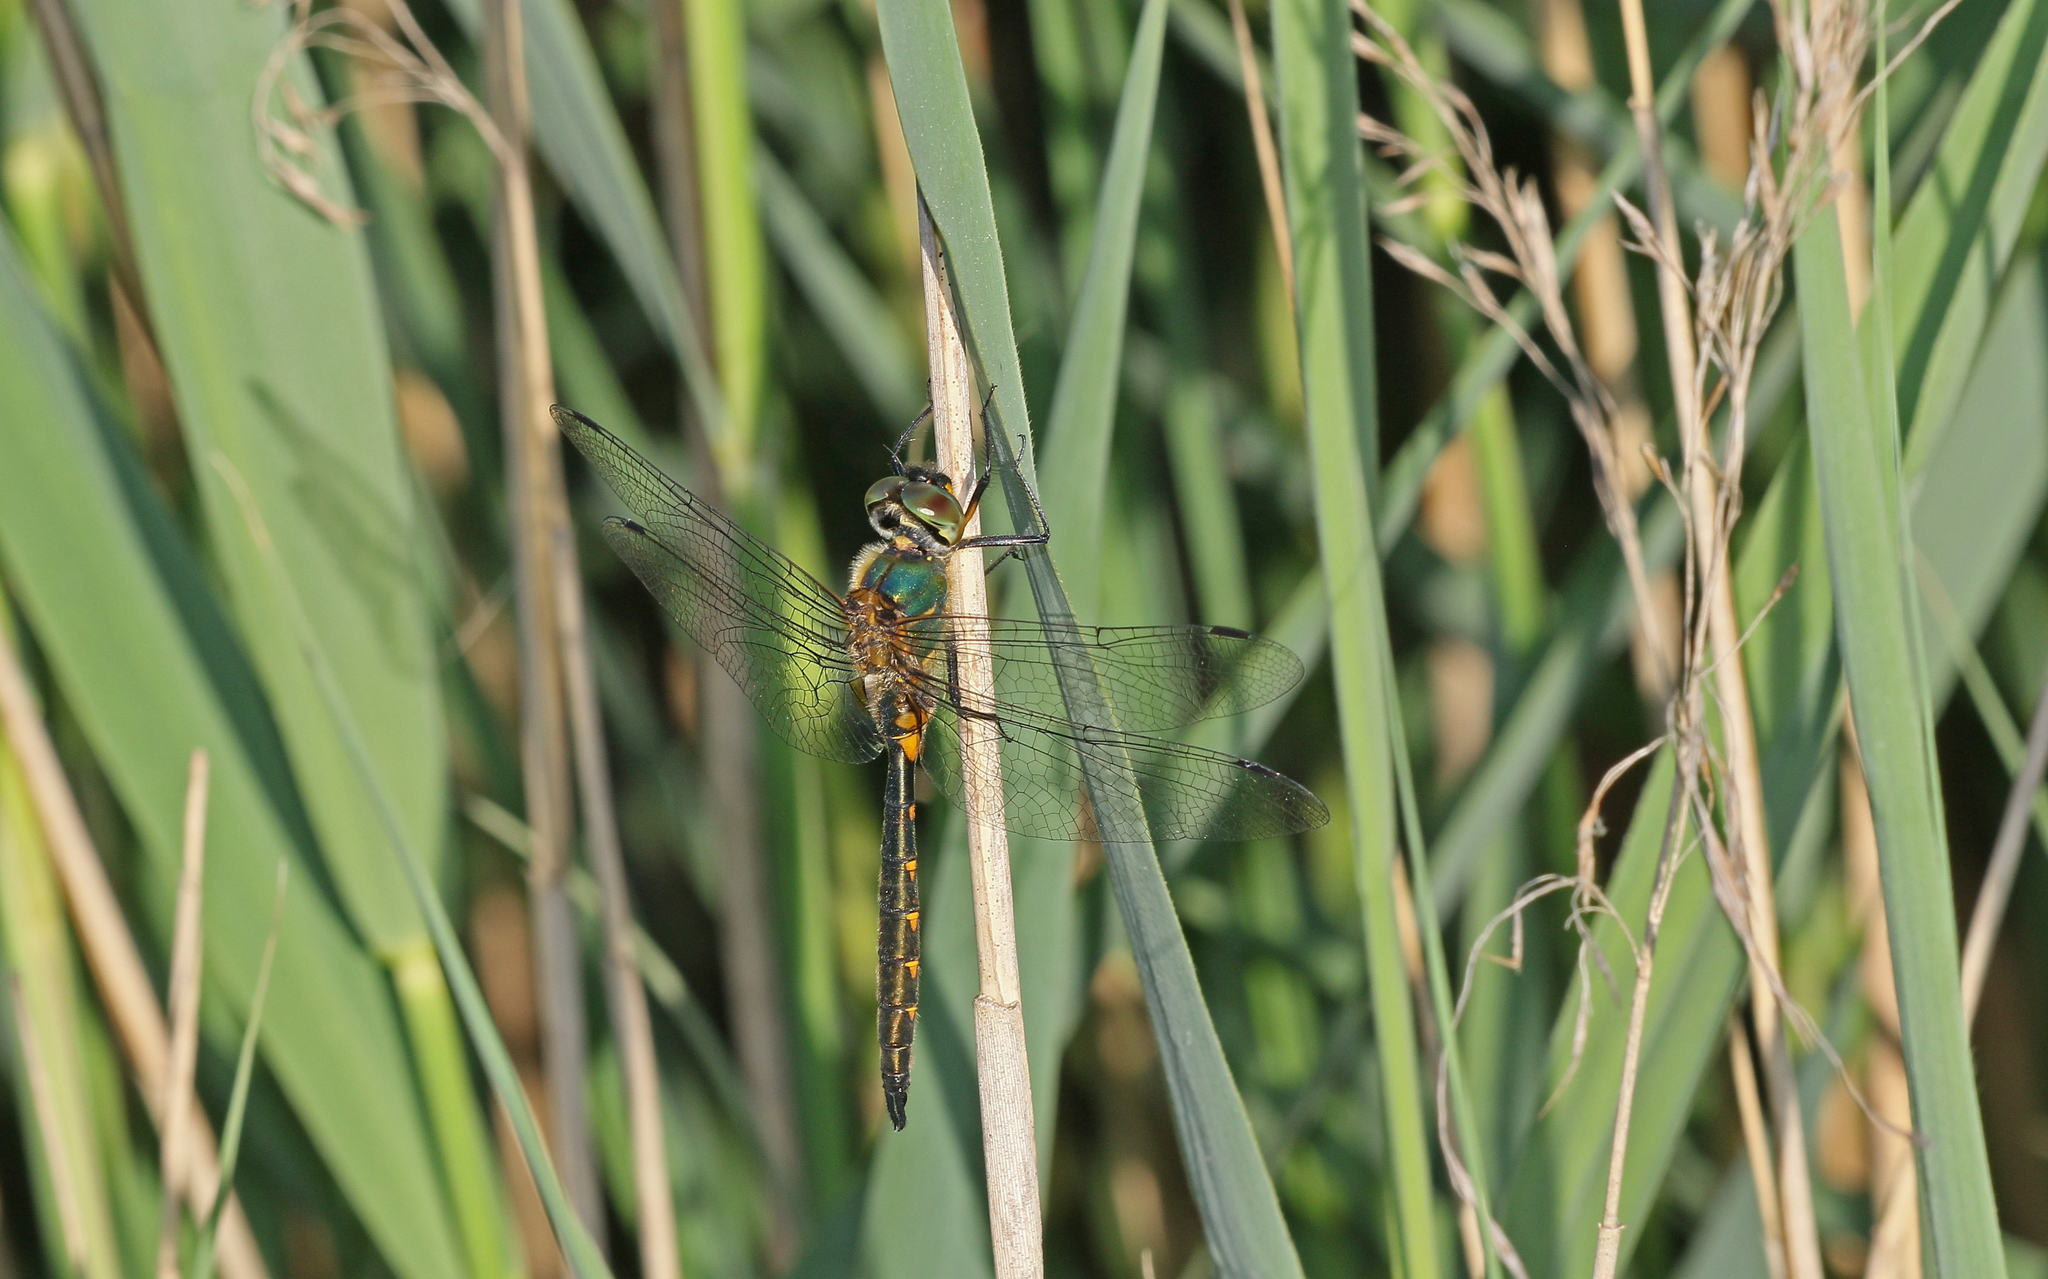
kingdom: Animalia
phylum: Arthropoda
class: Insecta
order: Odonata
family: Corduliidae
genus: Somatochlora
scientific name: Somatochlora flavomaculata
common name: Yellow-spotted emerald
